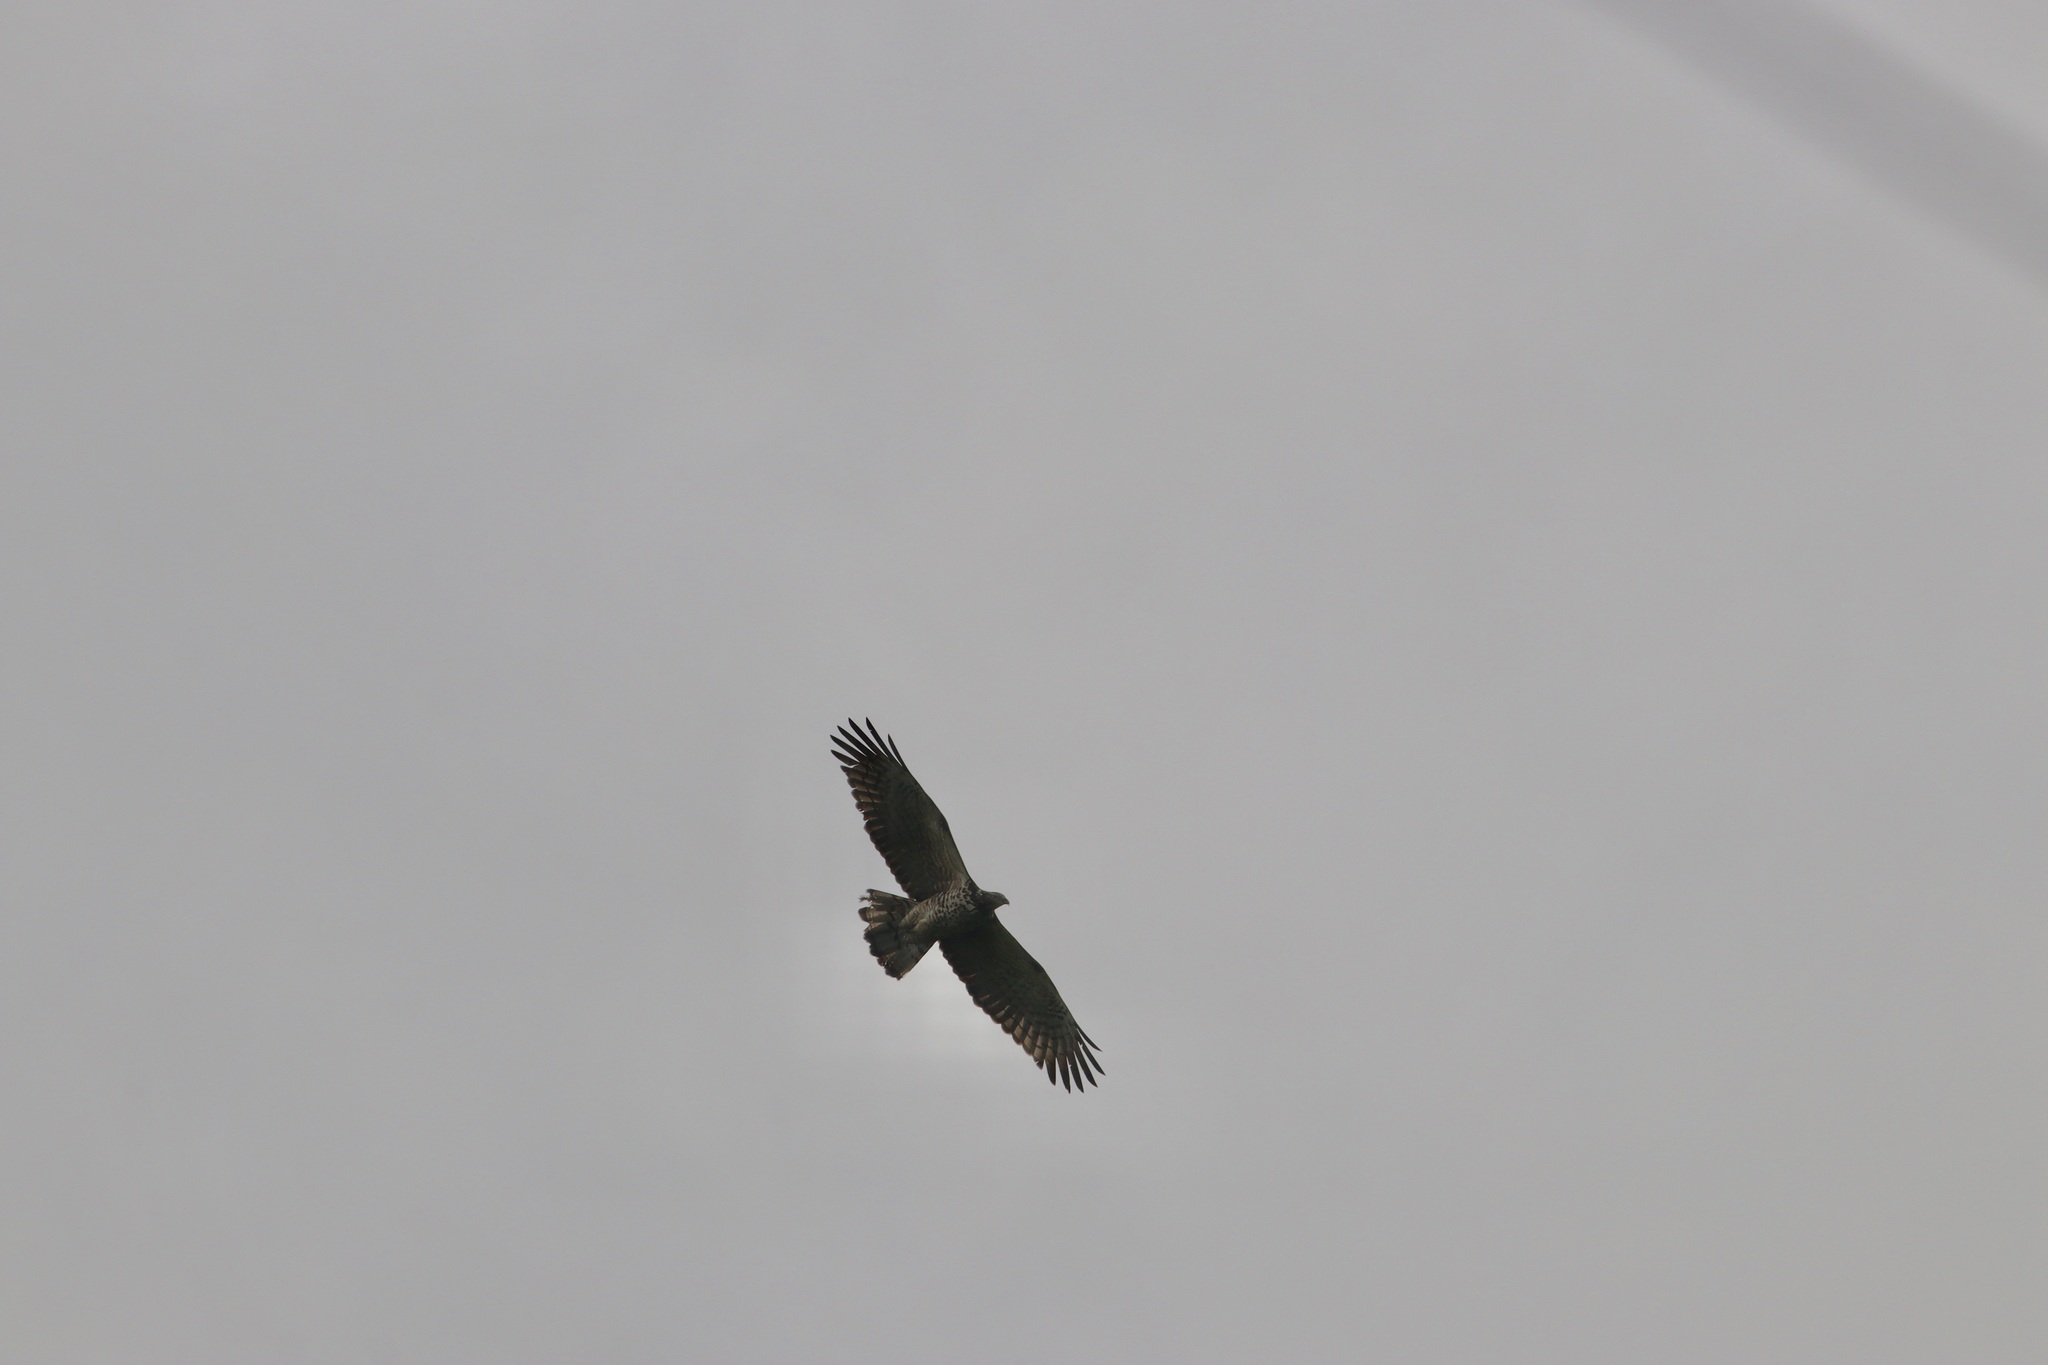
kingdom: Animalia
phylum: Chordata
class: Aves
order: Accipitriformes
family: Accipitridae
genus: Pernis
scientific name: Pernis ptilorhynchus
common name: Crested honey buzzard
